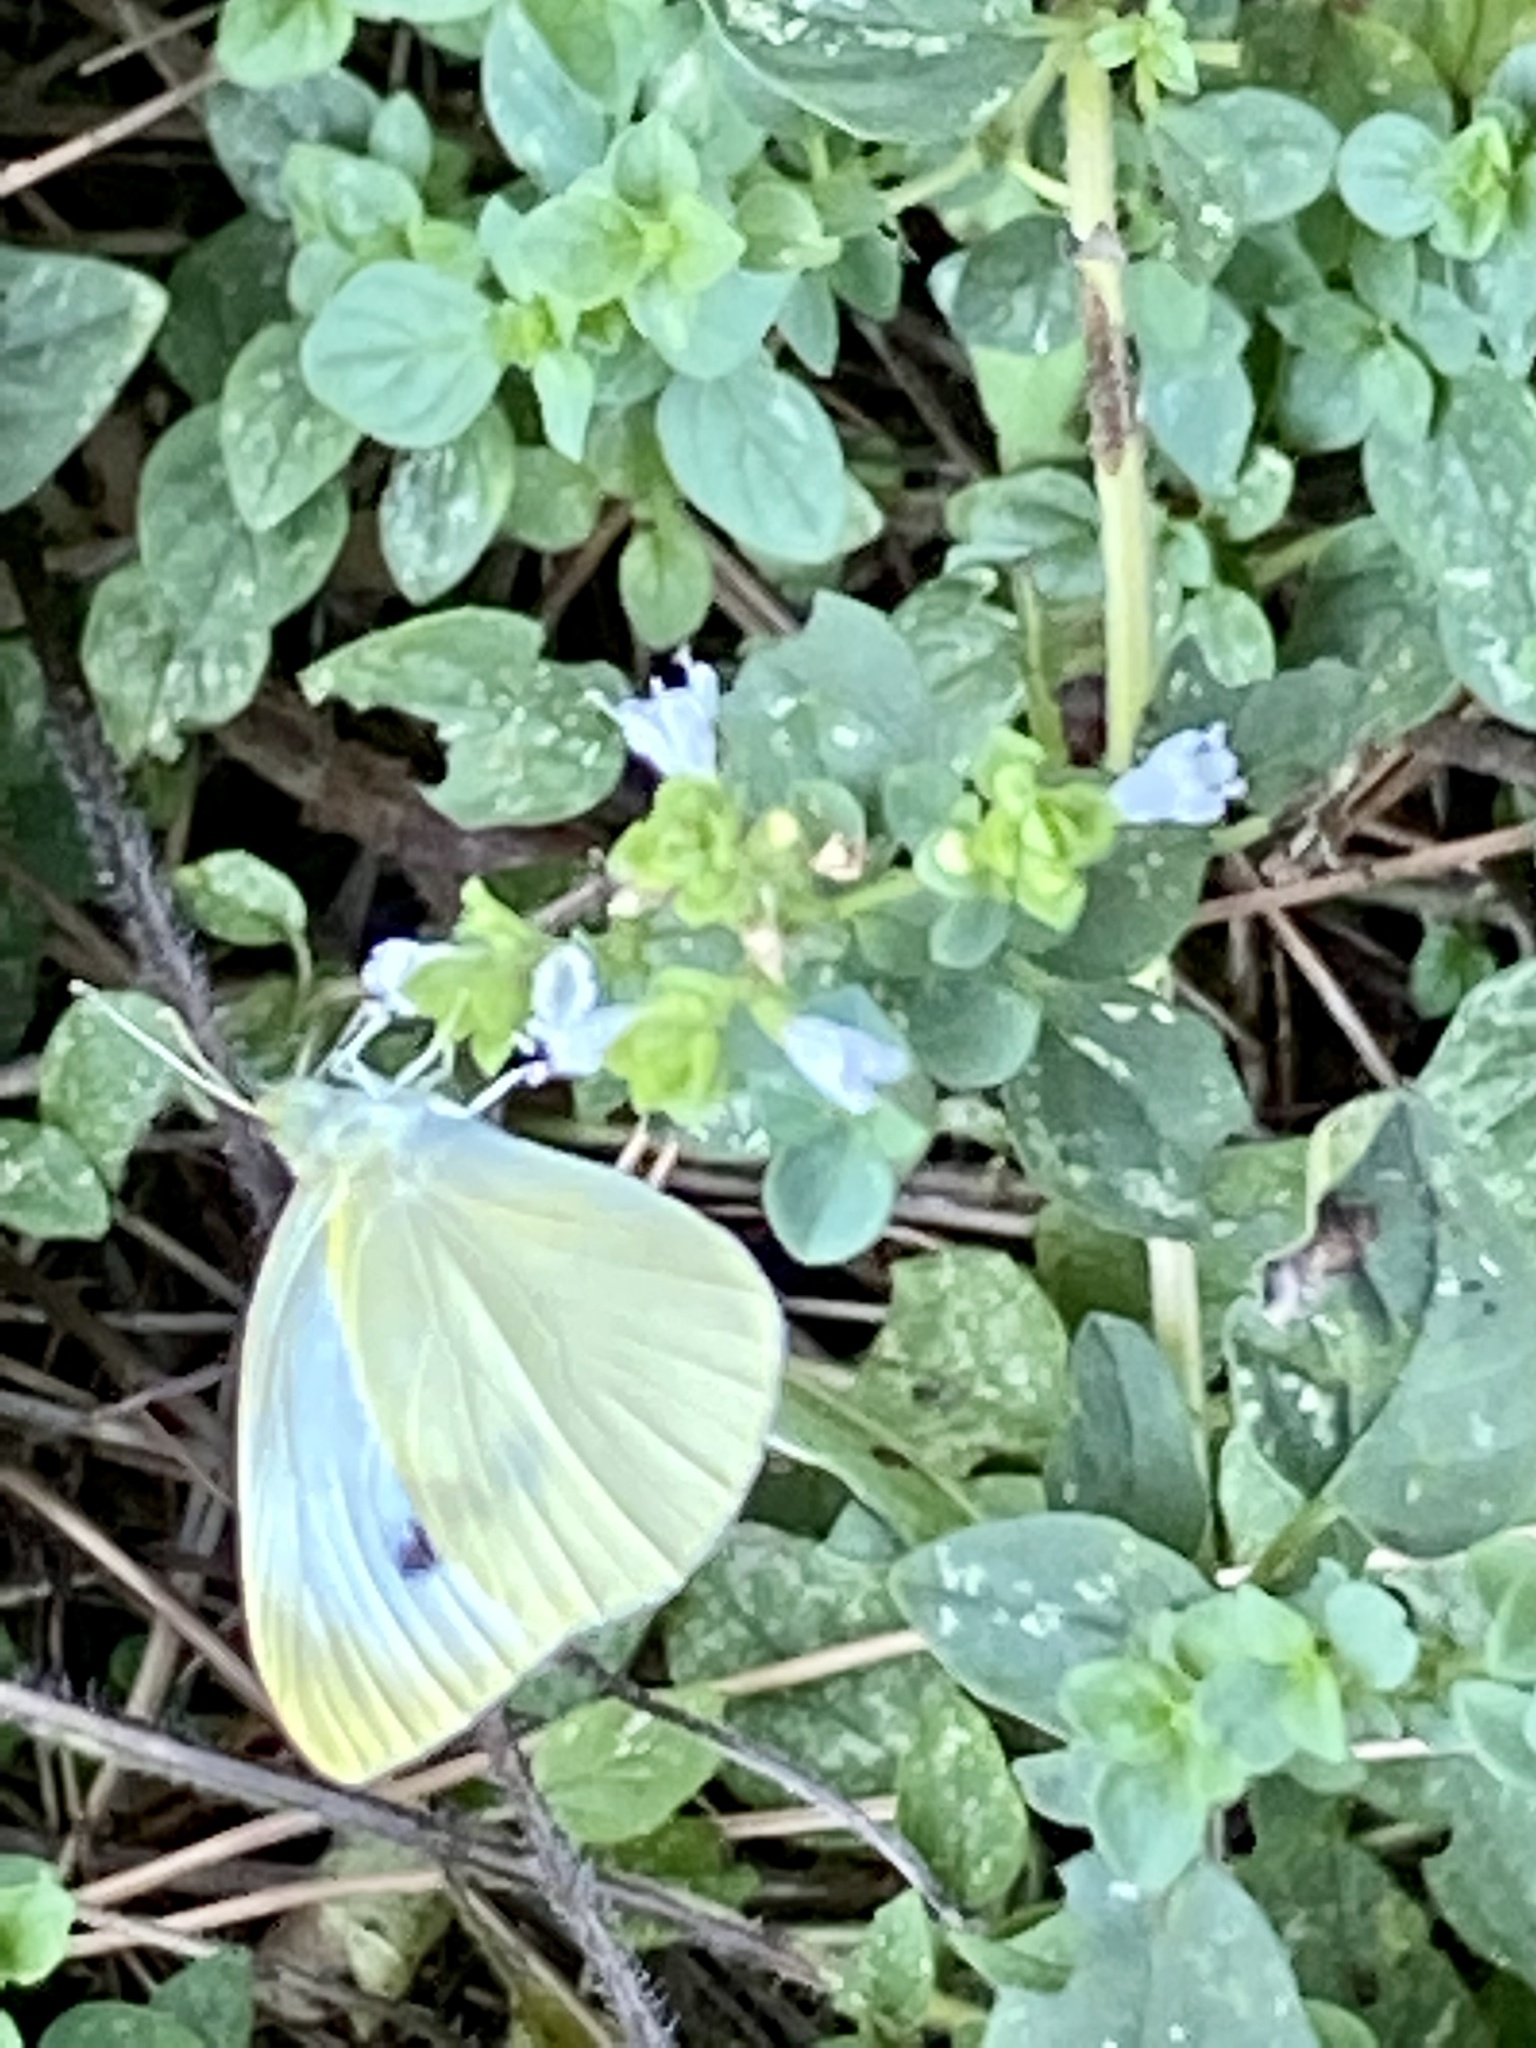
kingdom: Animalia
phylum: Arthropoda
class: Insecta
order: Lepidoptera
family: Pieridae
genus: Pieris
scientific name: Pieris rapae
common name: Small white
